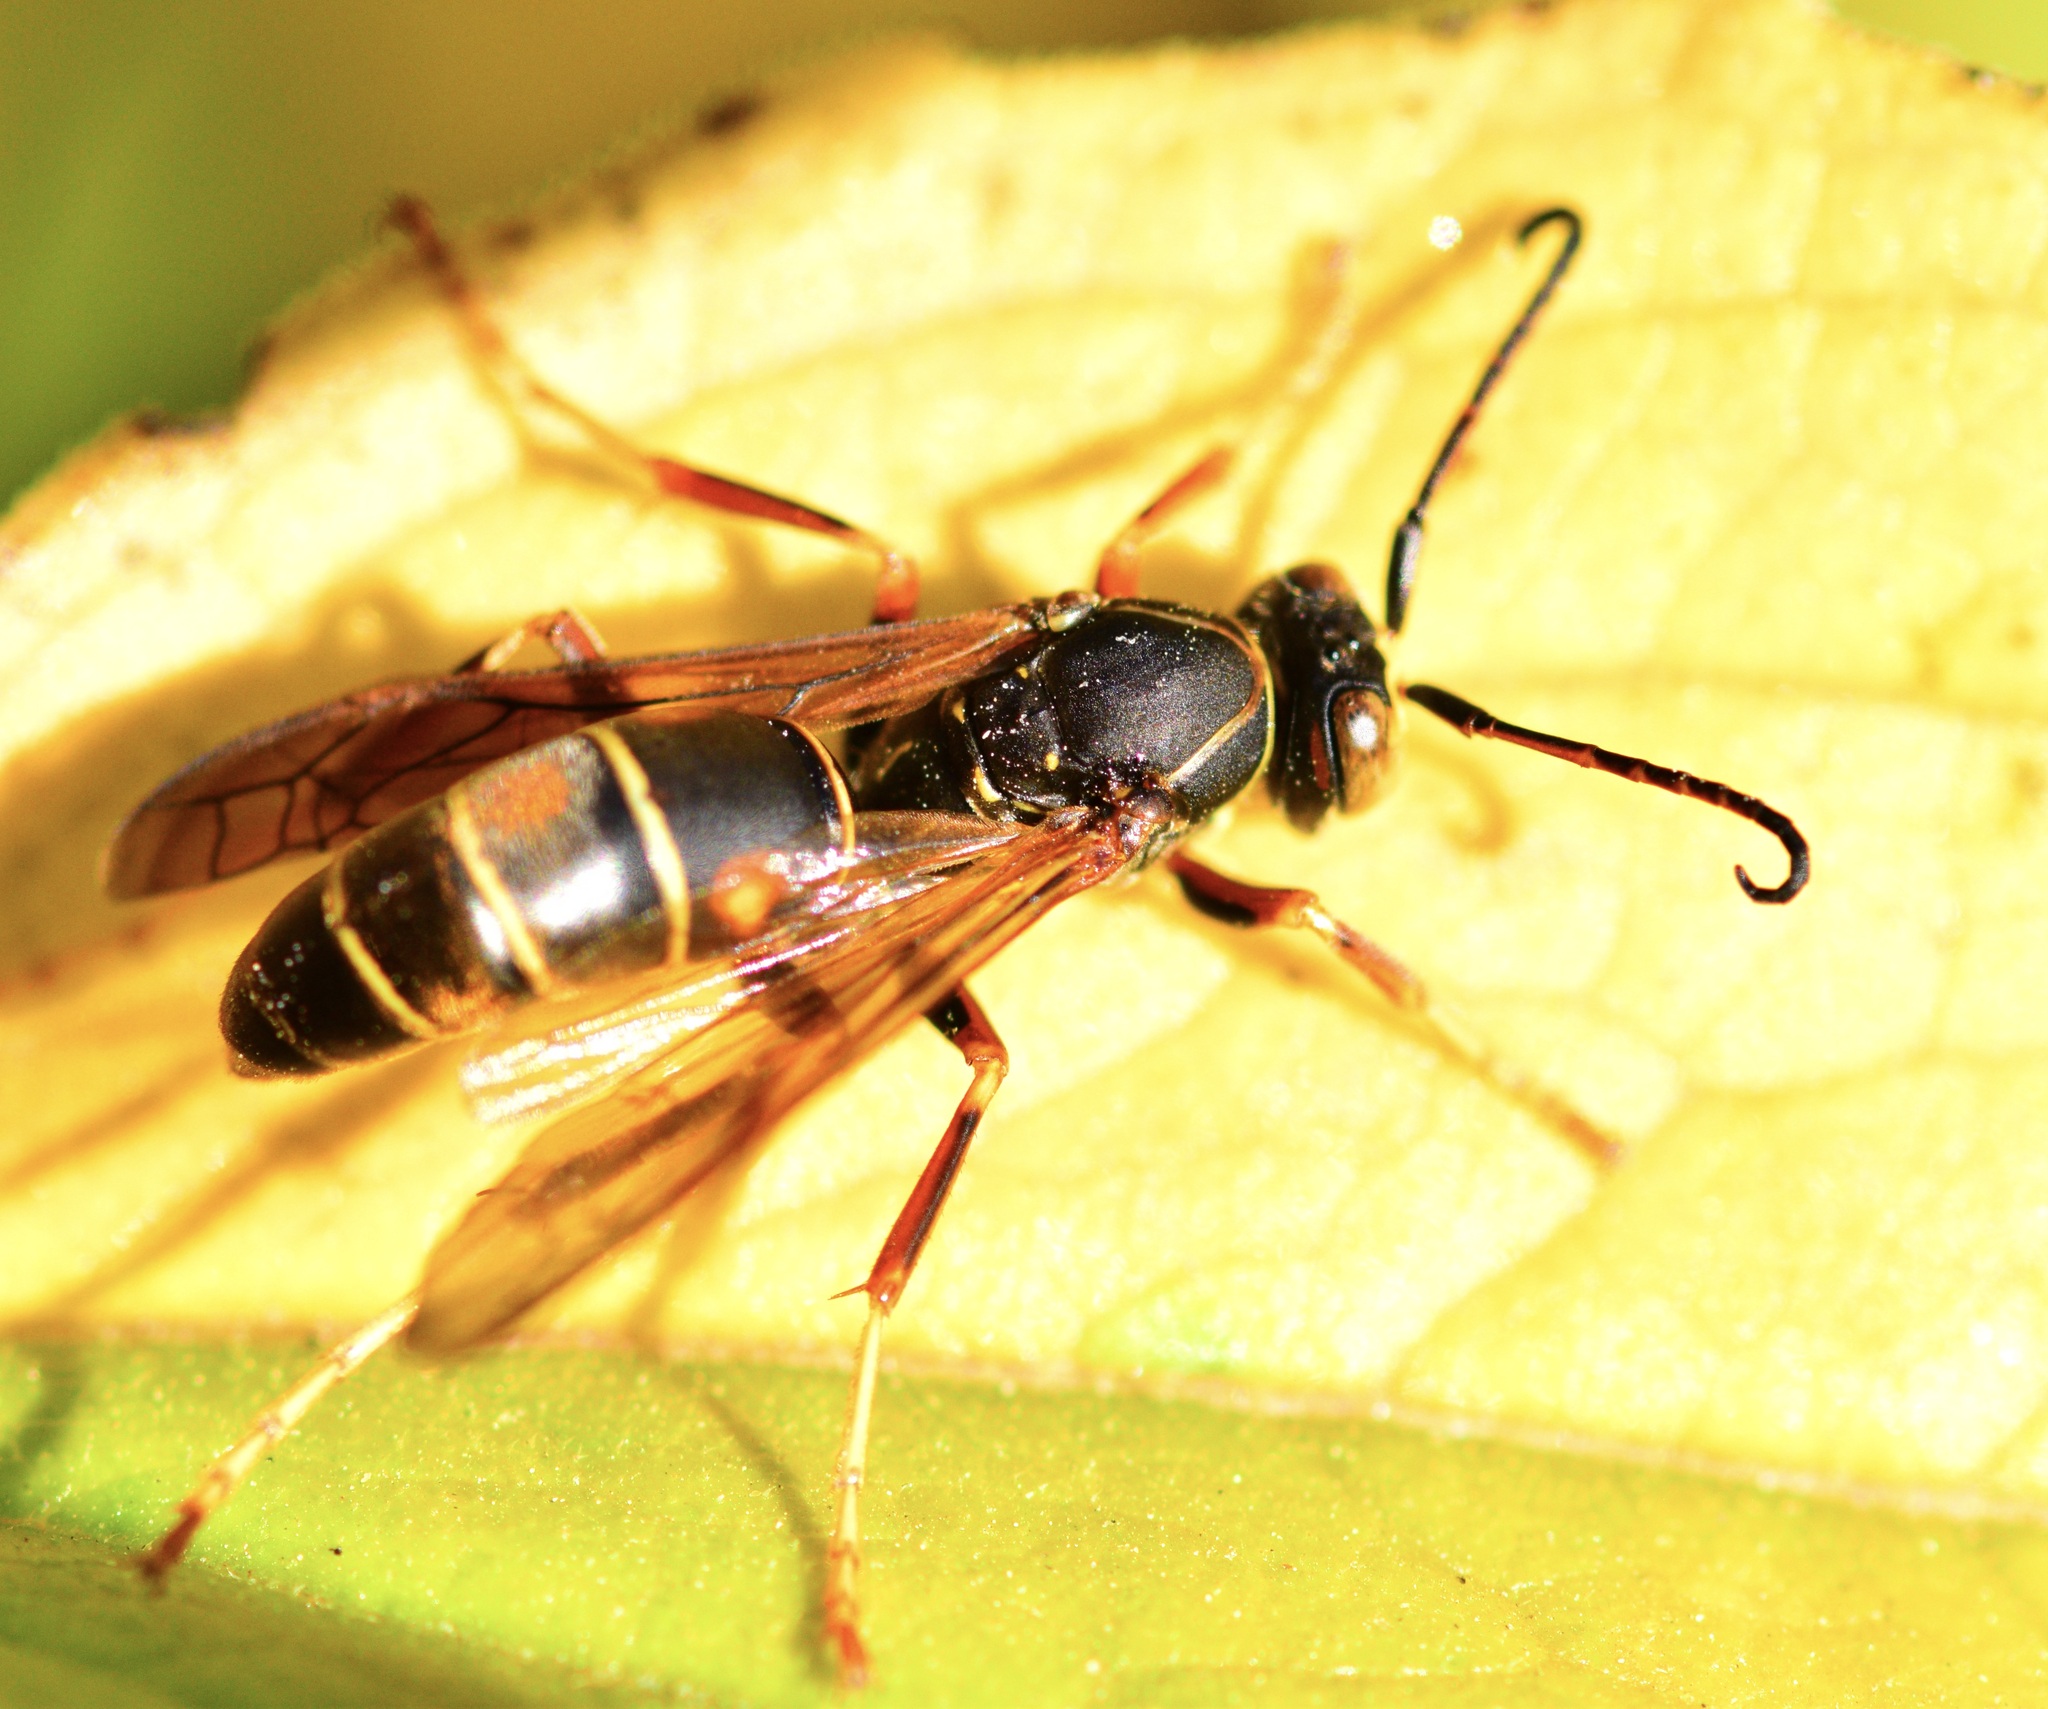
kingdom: Animalia
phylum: Arthropoda
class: Insecta
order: Hymenoptera
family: Eumenidae
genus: Polistes
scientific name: Polistes fuscatus
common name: Dark paper wasp
